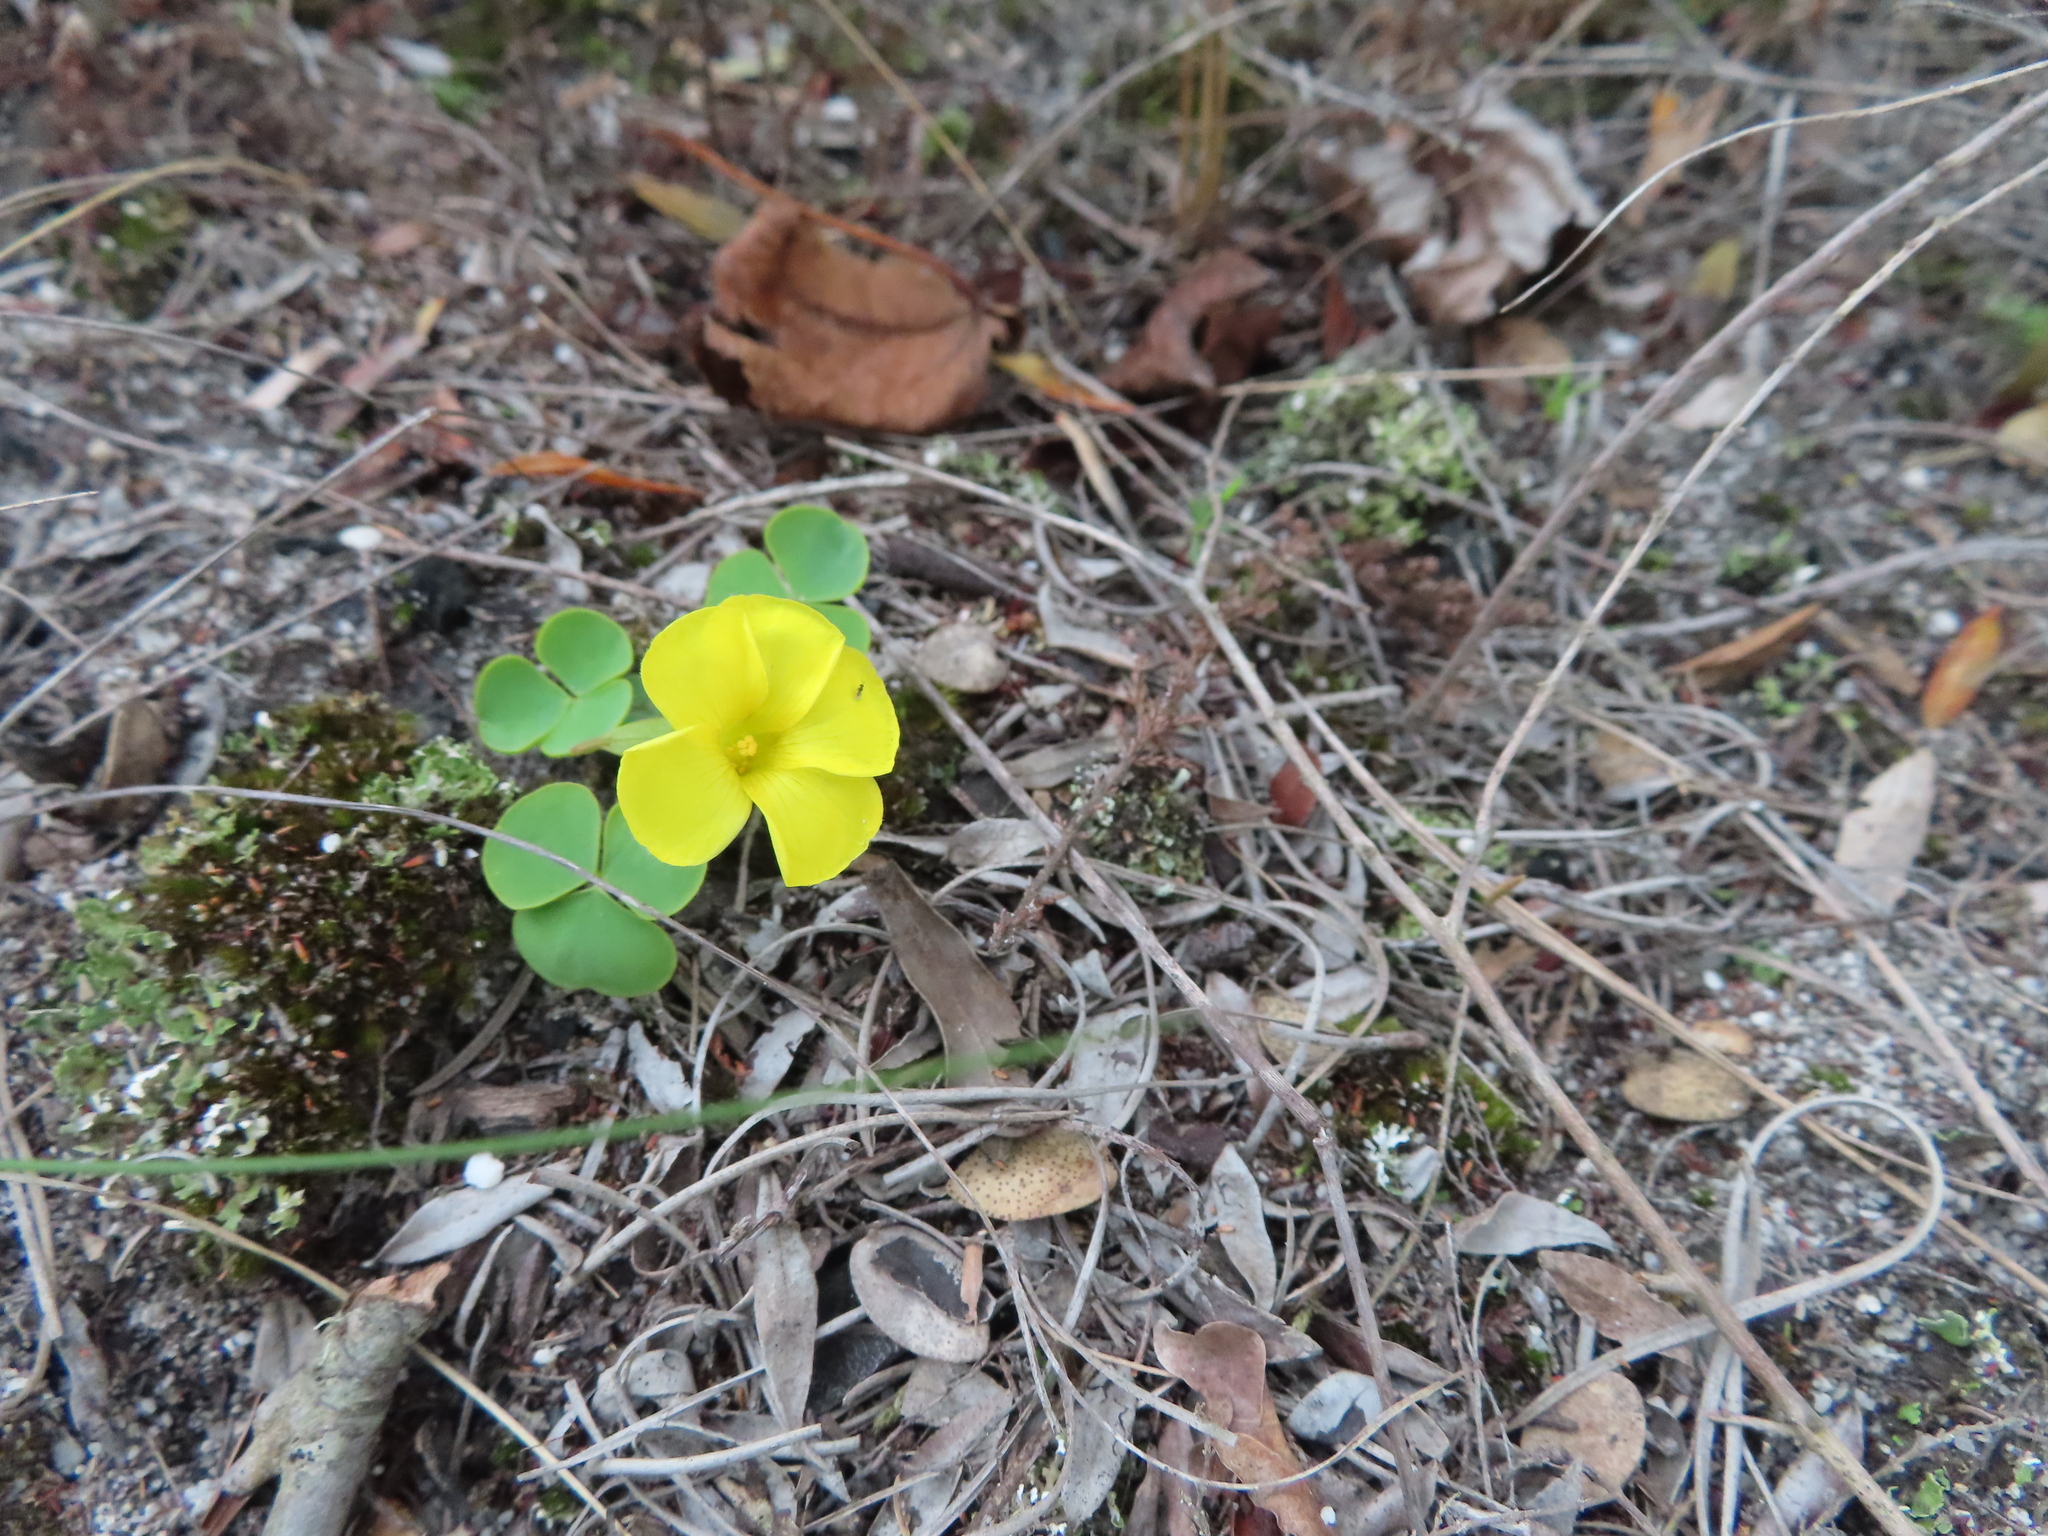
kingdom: Plantae
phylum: Tracheophyta
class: Magnoliopsida
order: Oxalidales
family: Oxalidaceae
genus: Oxalis
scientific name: Oxalis luteola
